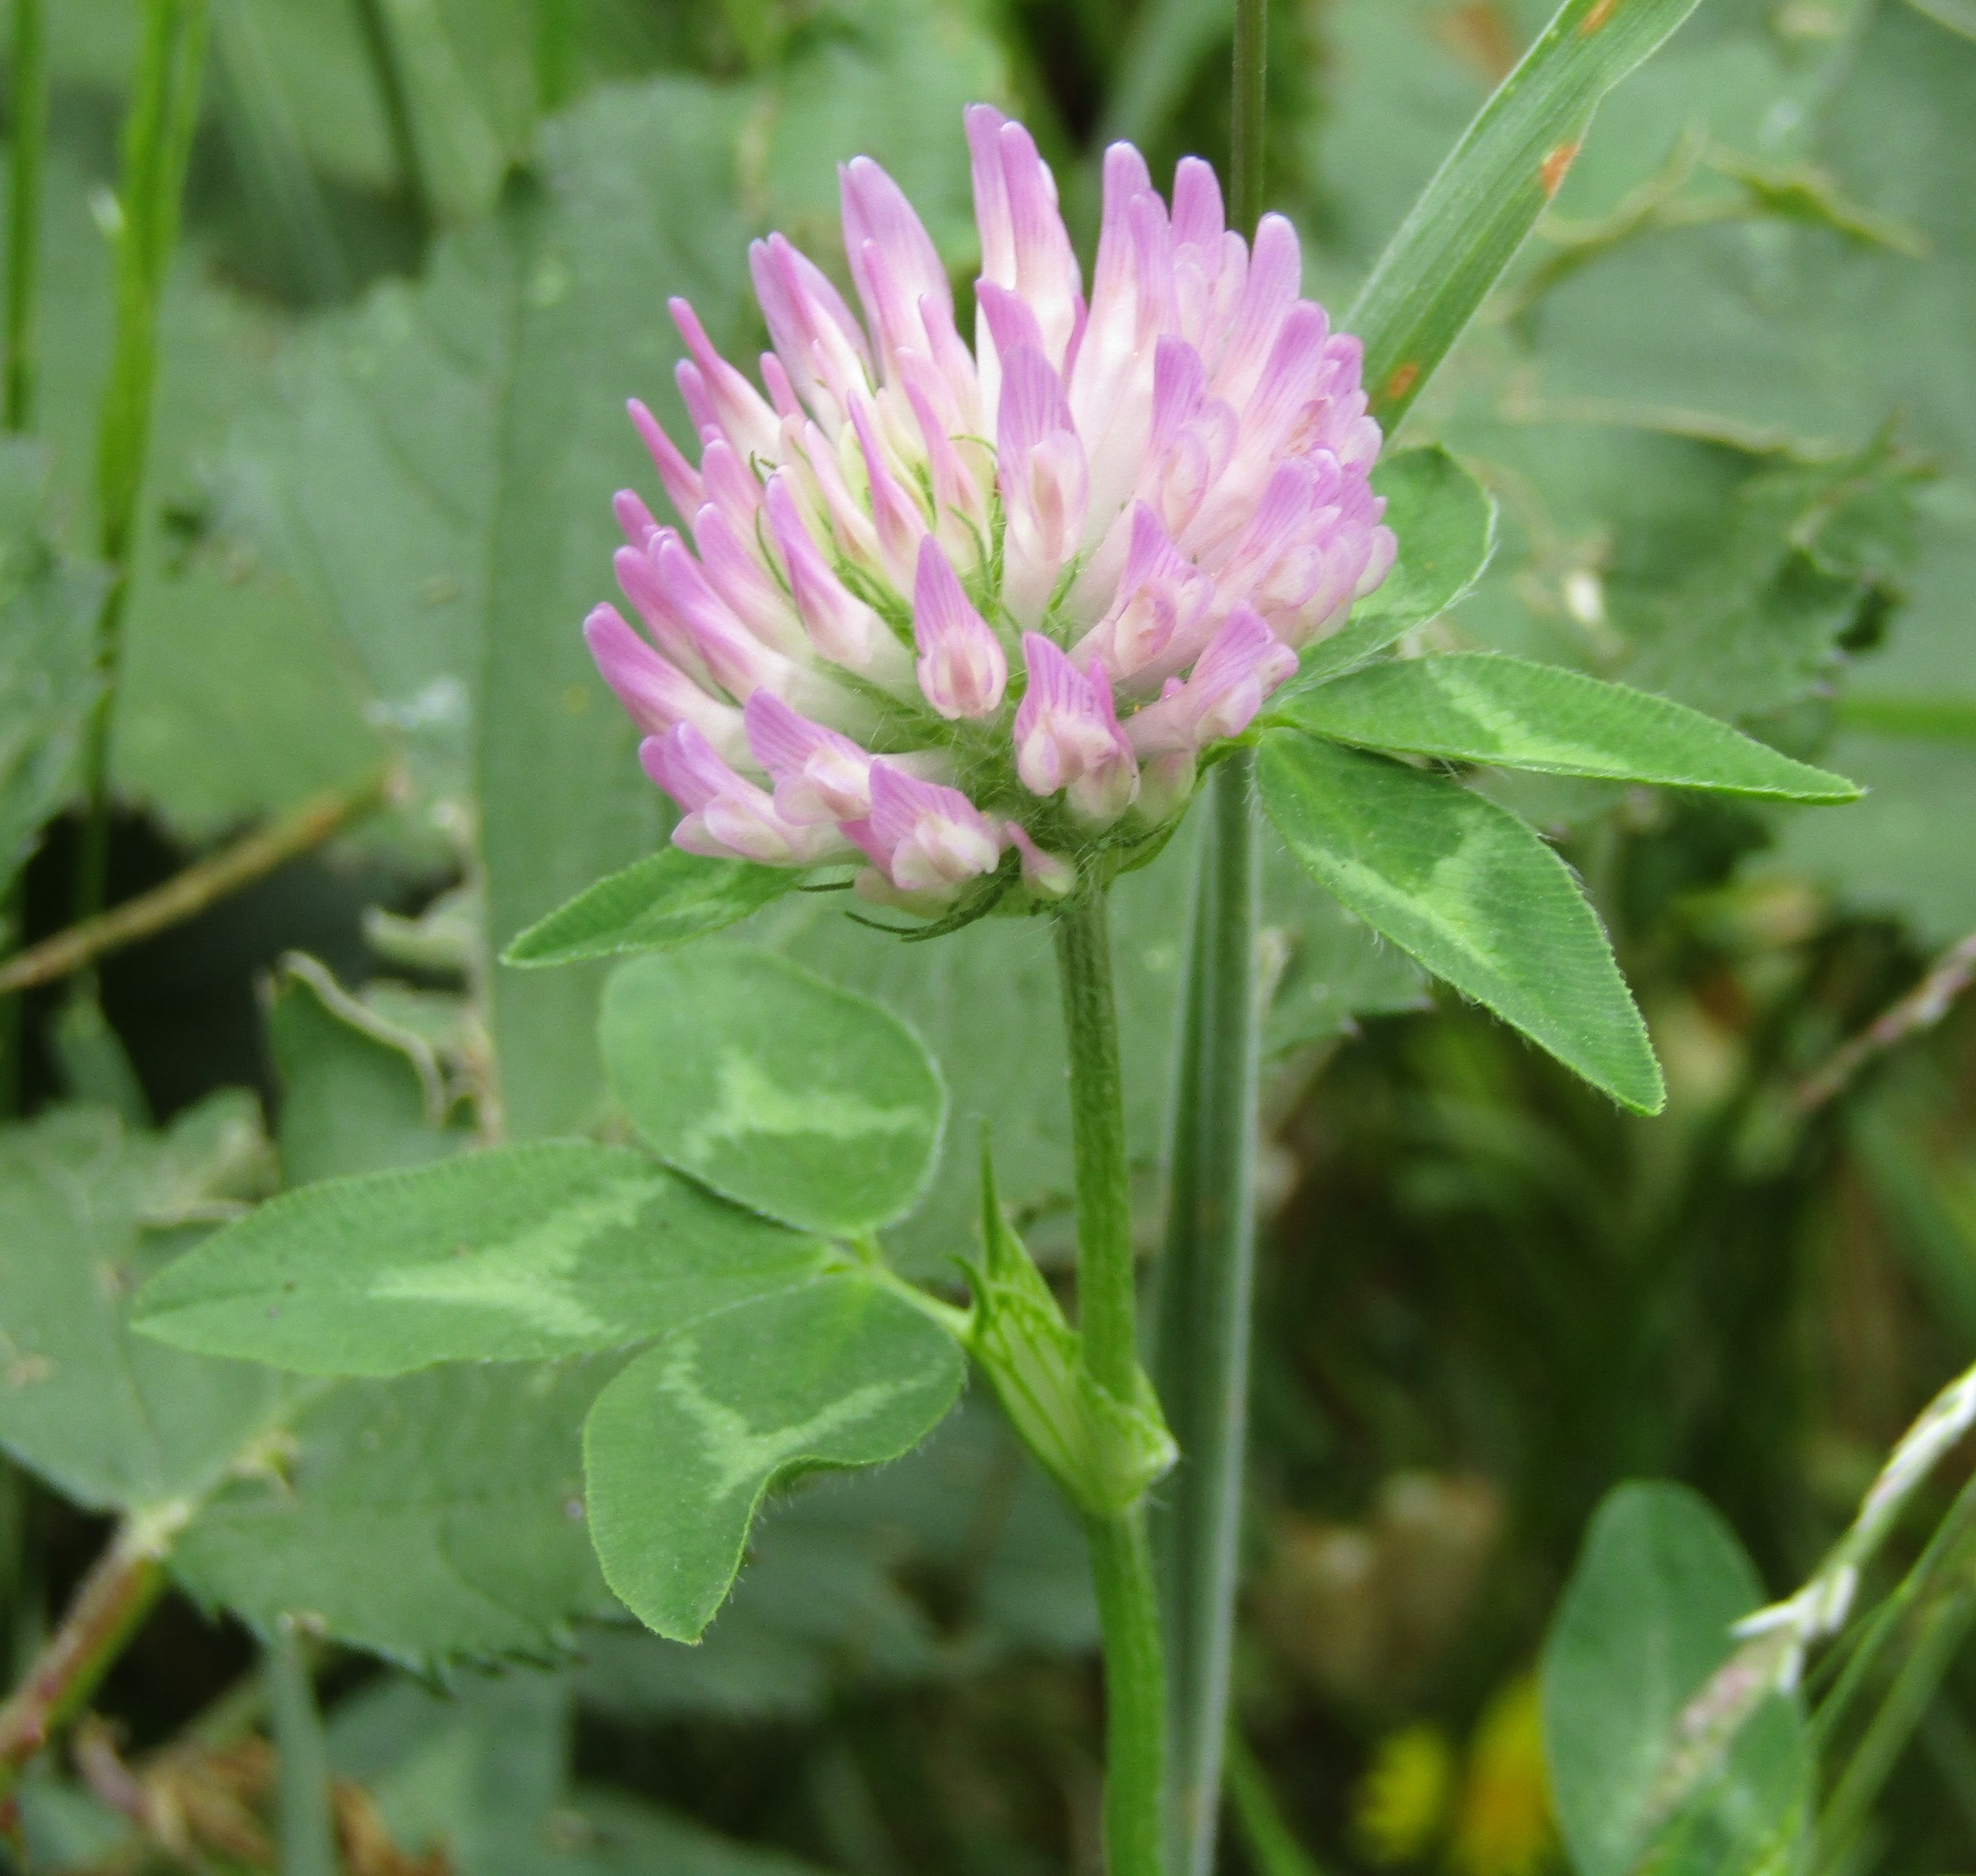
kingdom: Plantae
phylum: Tracheophyta
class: Magnoliopsida
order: Fabales
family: Fabaceae
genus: Trifolium
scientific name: Trifolium pratense
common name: Red clover
